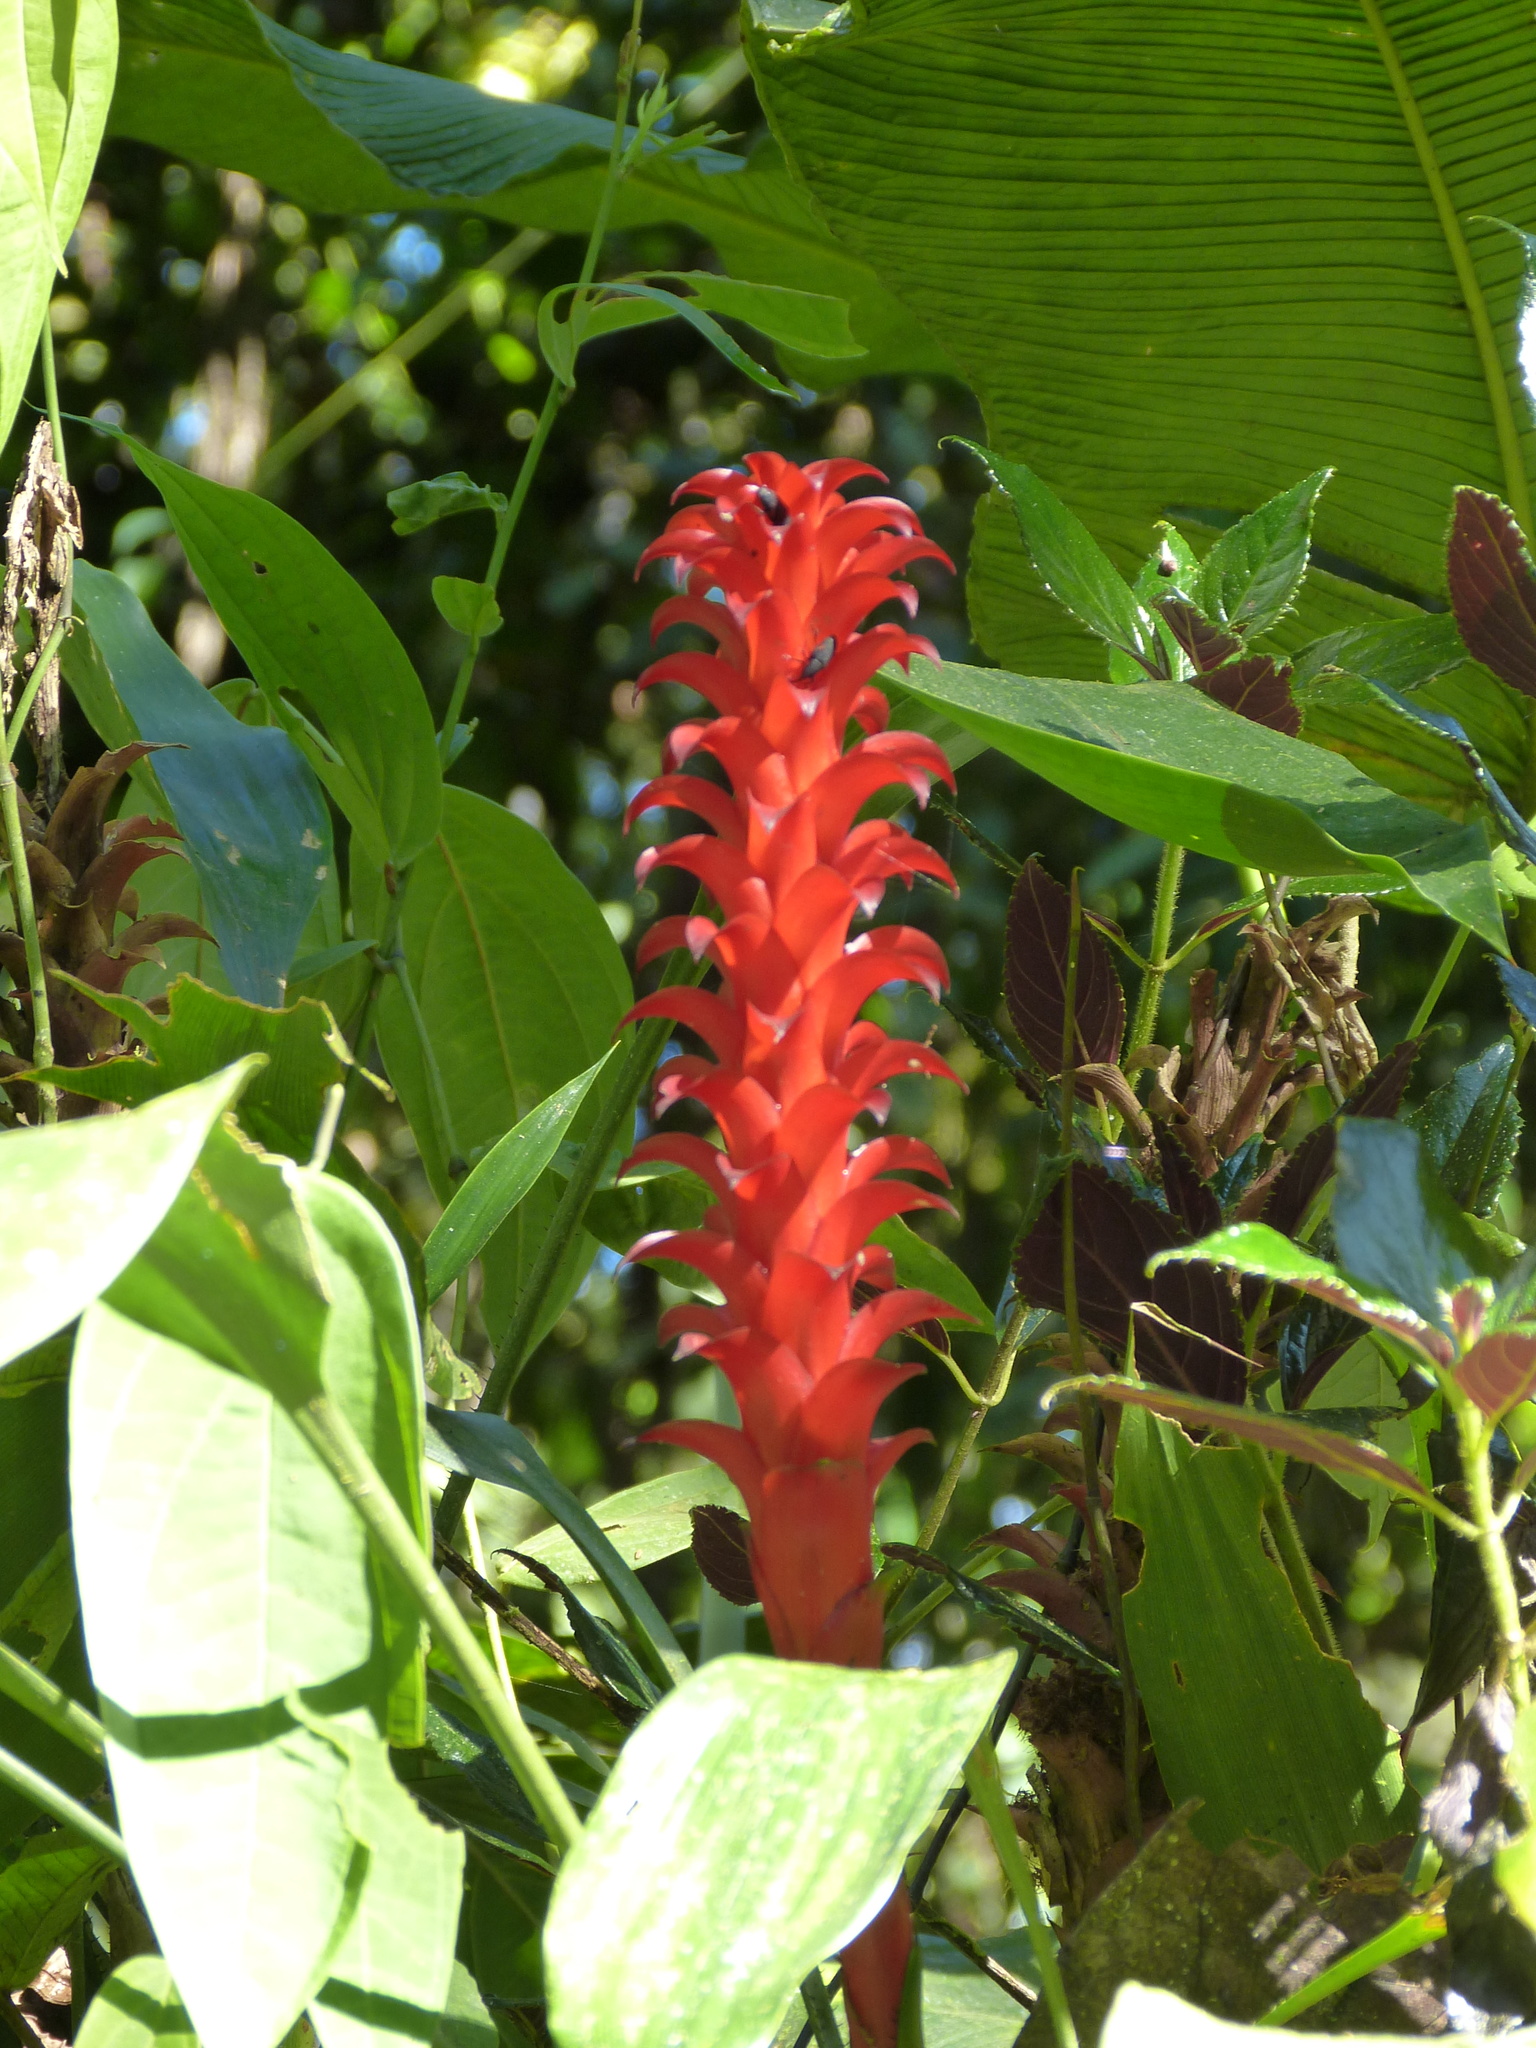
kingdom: Plantae
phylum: Tracheophyta
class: Liliopsida
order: Poales
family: Bromeliaceae
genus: Pitcairnia
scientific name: Pitcairnia nigra
